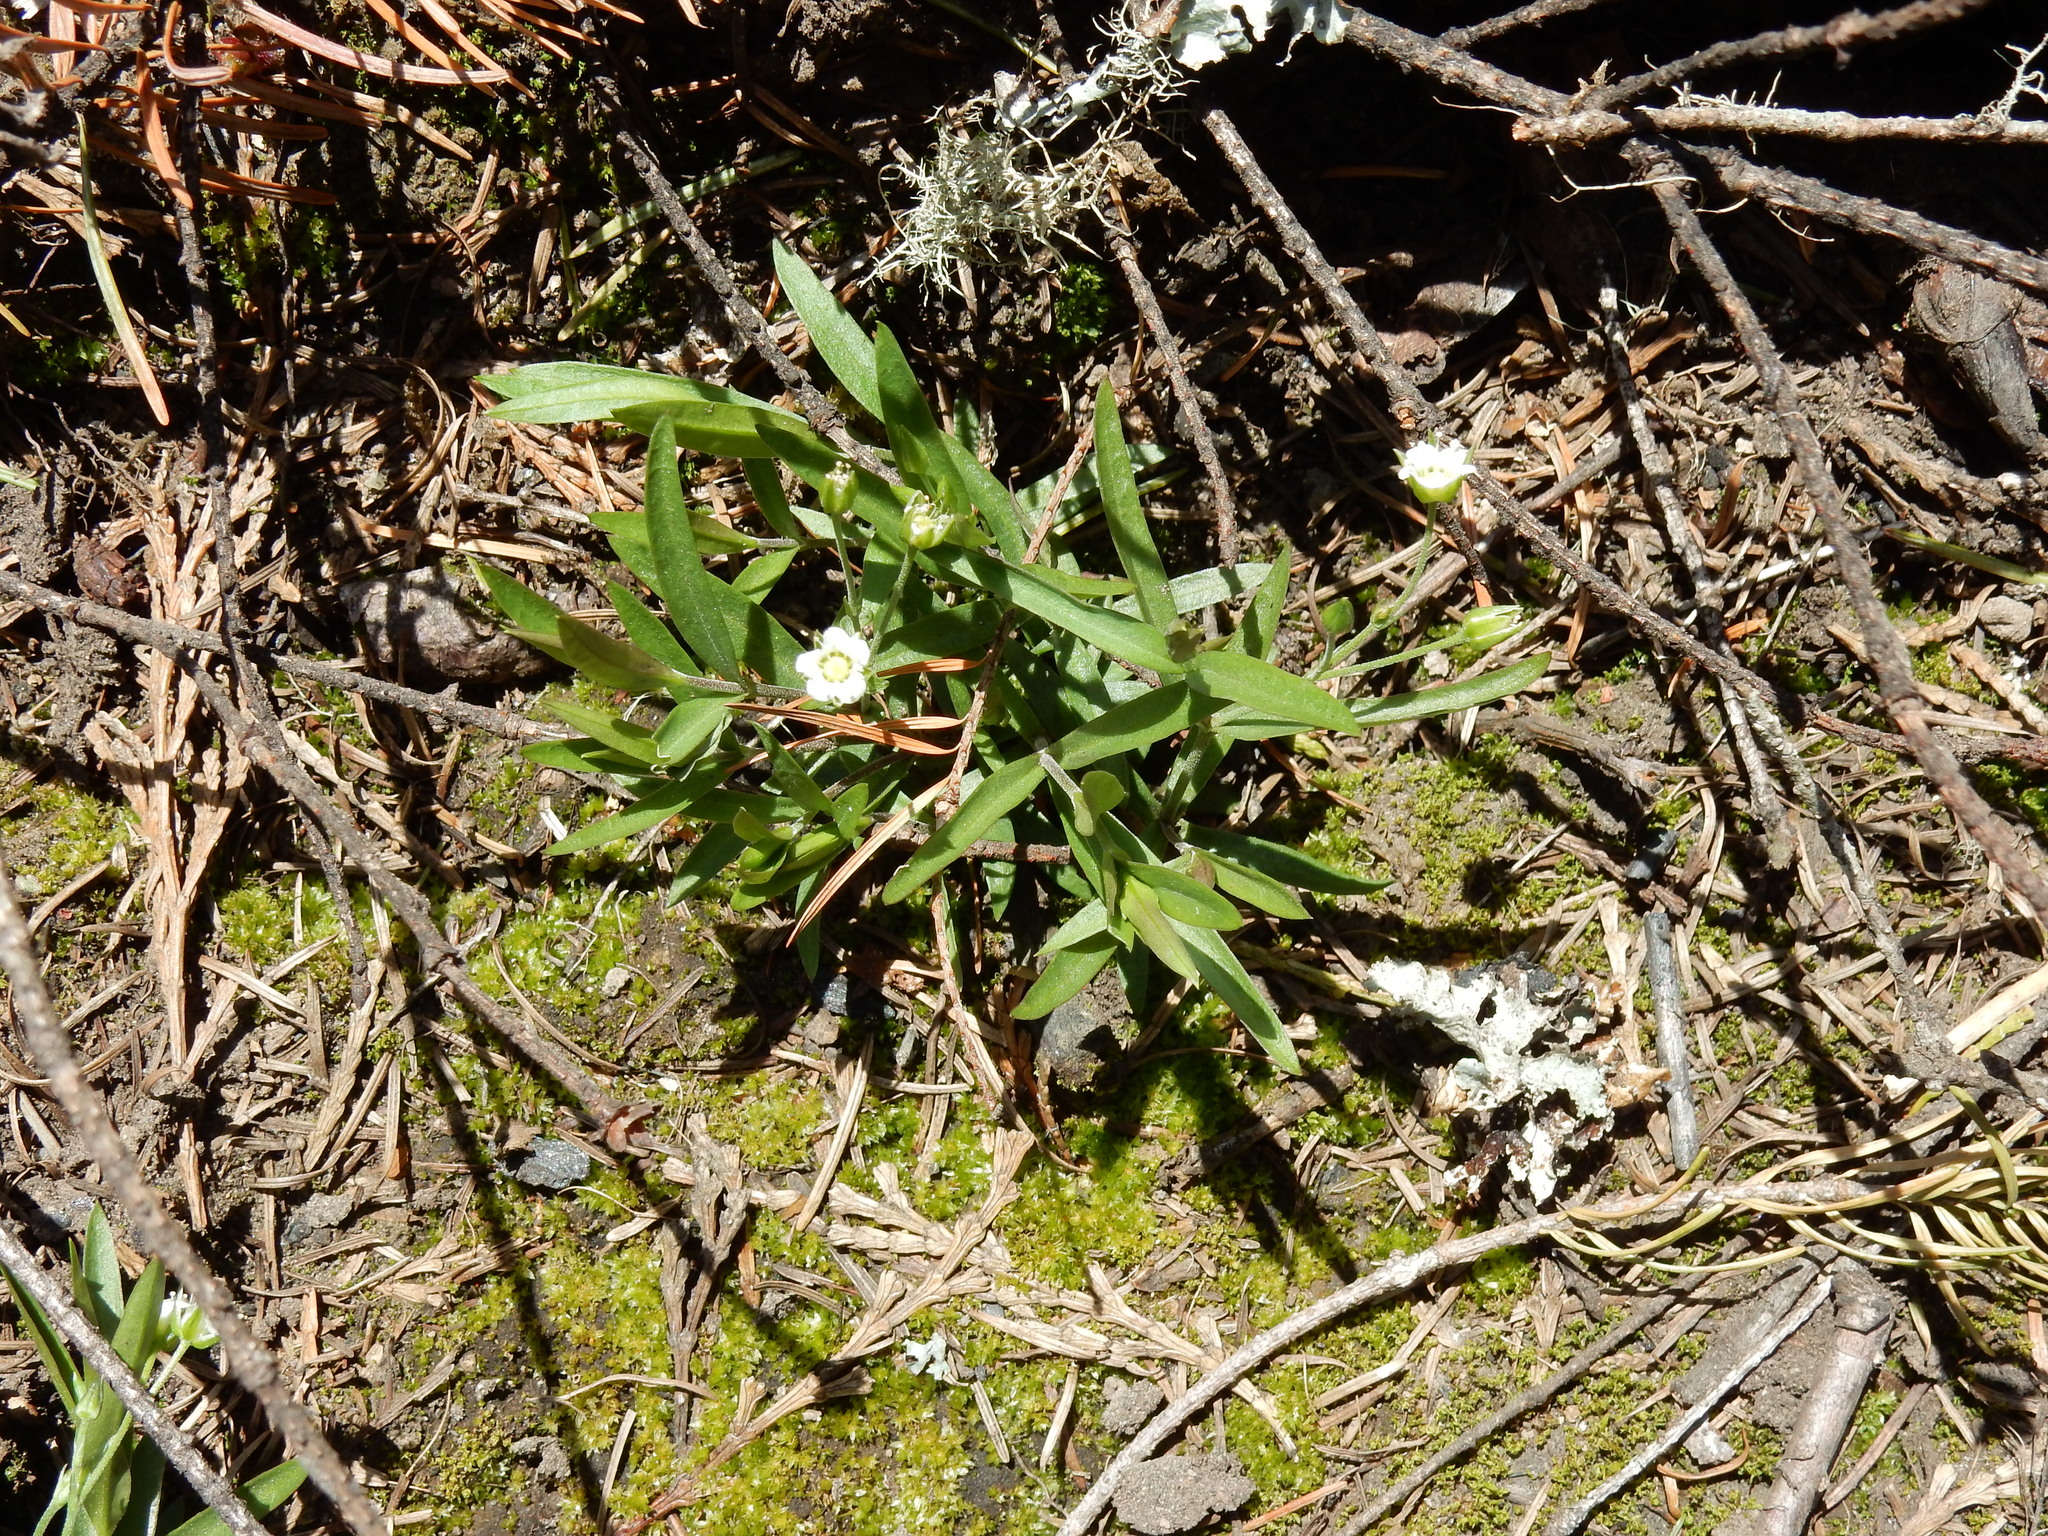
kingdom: Plantae
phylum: Tracheophyta
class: Magnoliopsida
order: Caryophyllales
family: Caryophyllaceae
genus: Moehringia
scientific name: Moehringia macrophylla
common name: Big-leaf sandwort
